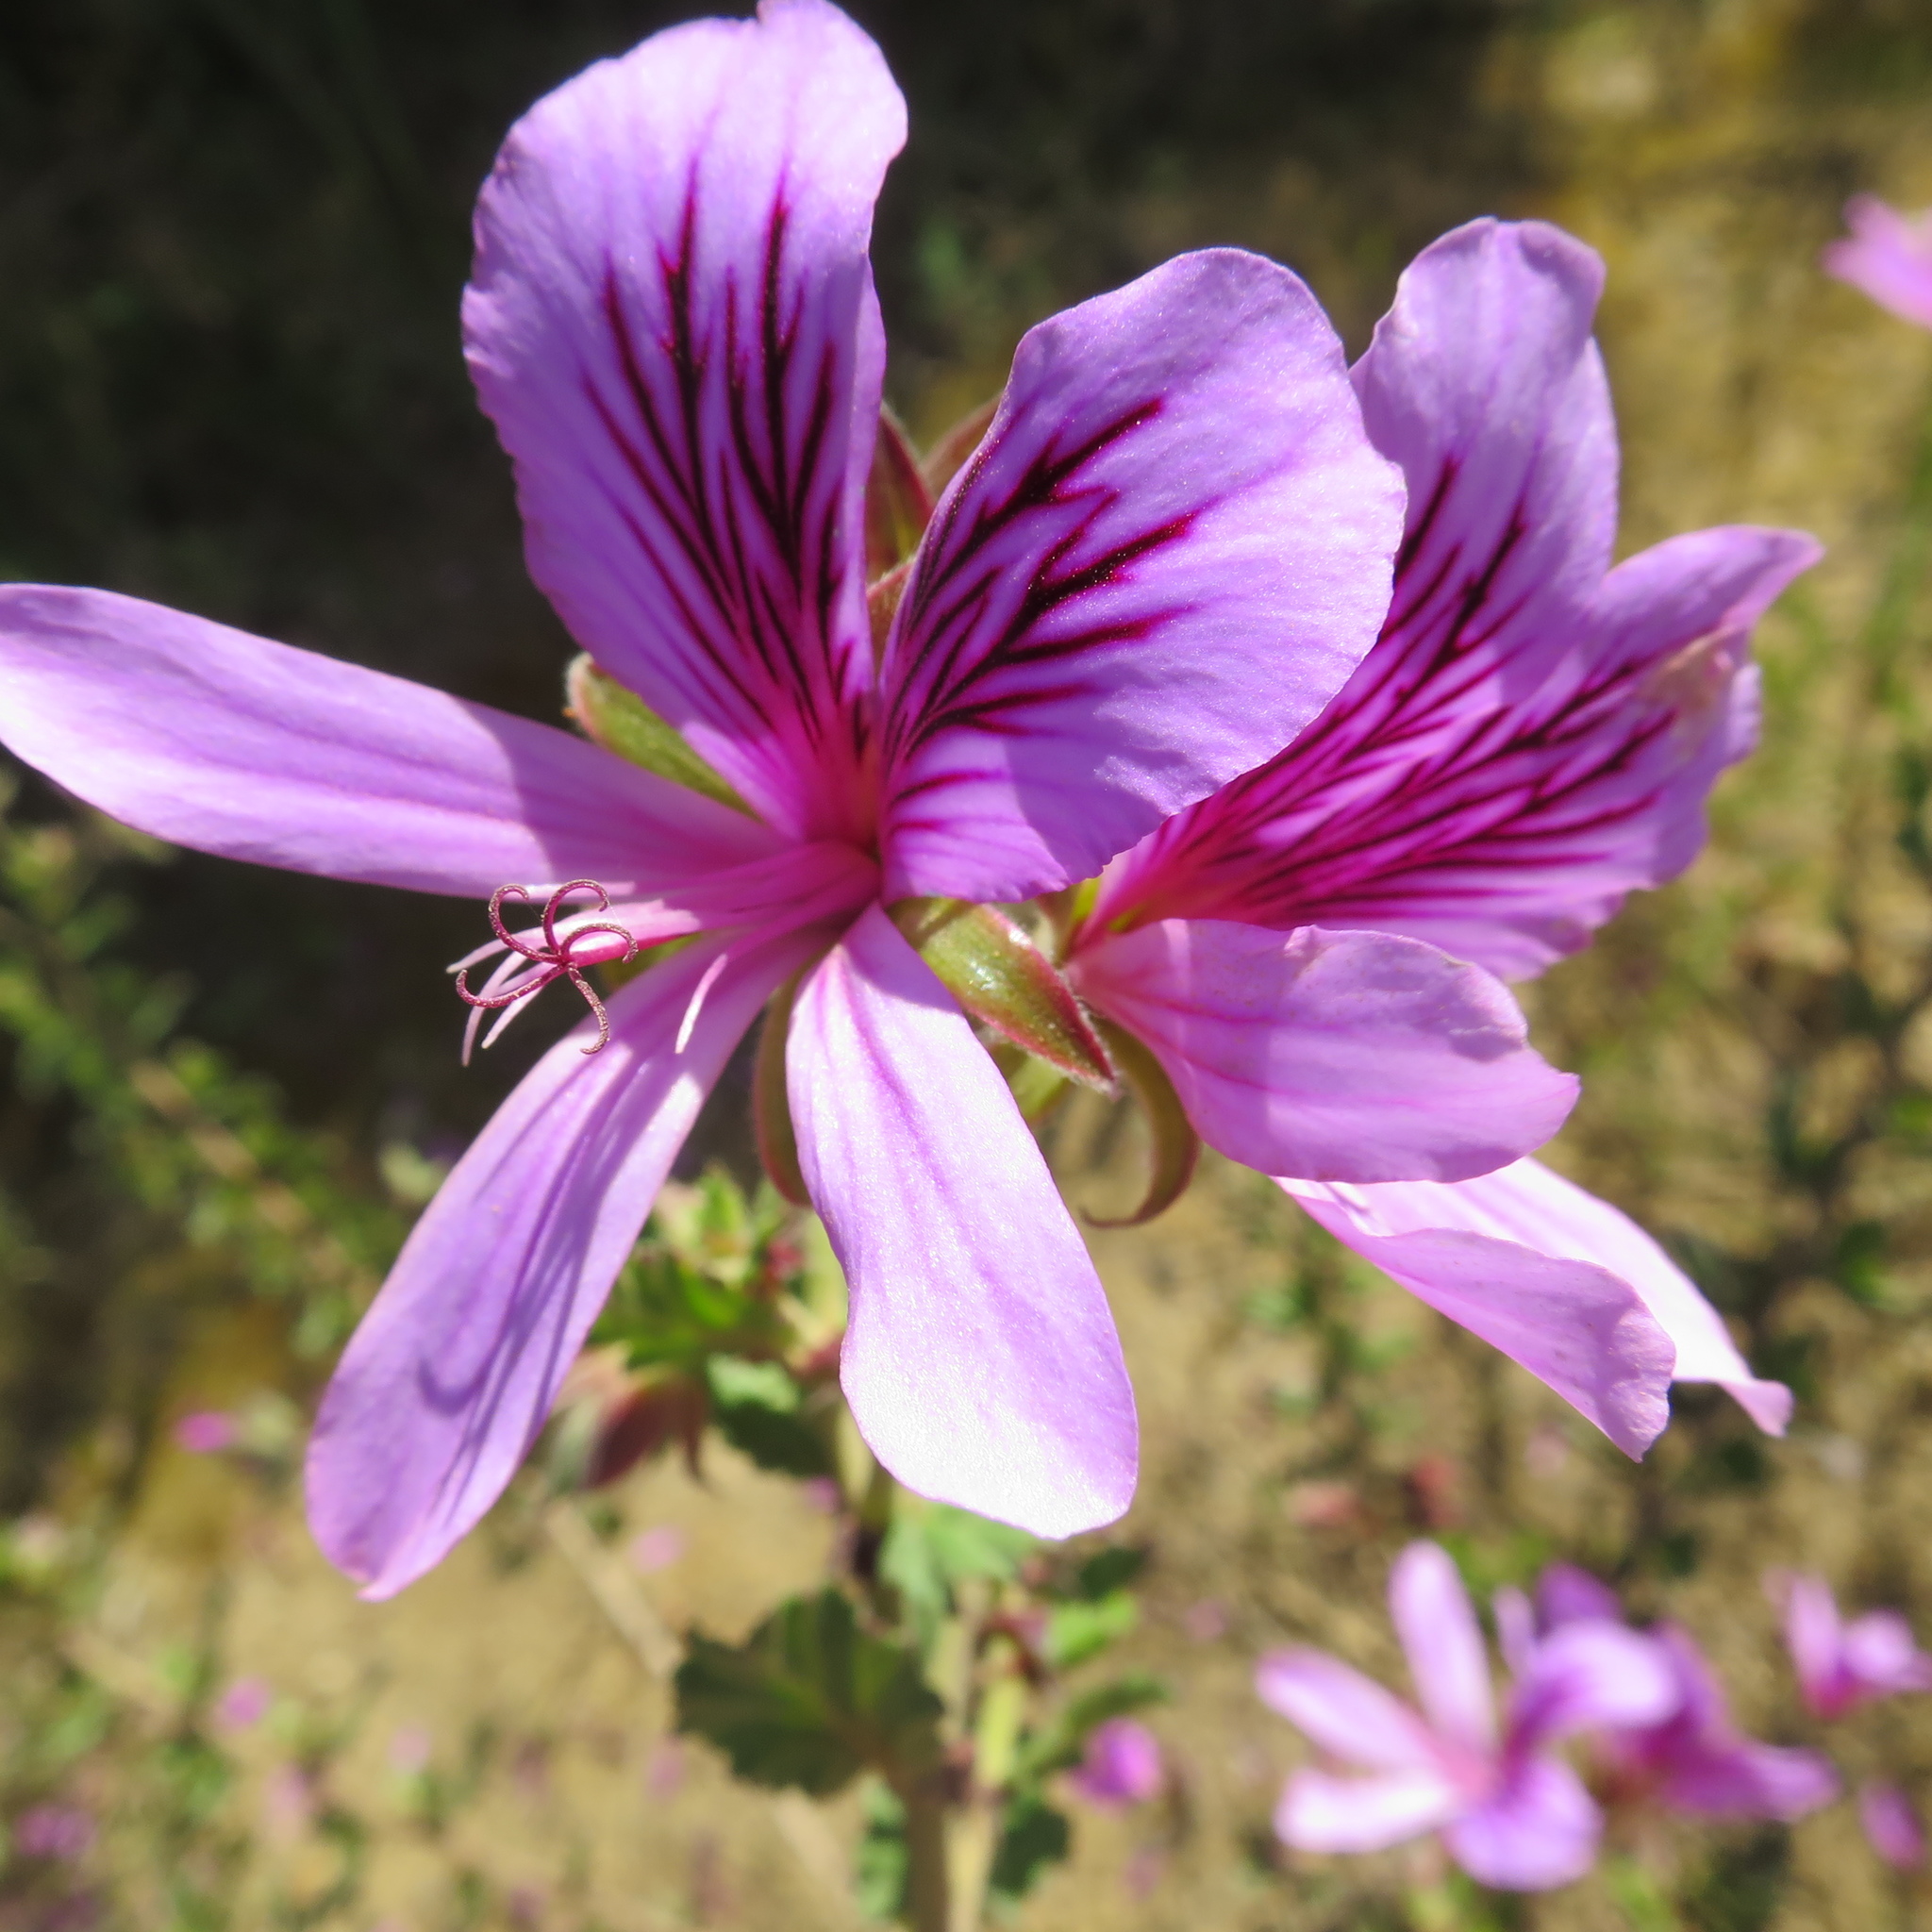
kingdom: Plantae
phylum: Tracheophyta
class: Magnoliopsida
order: Geraniales
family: Geraniaceae
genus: Pelargonium
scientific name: Pelargonium betulinum
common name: Birch-leaf pelargonium
